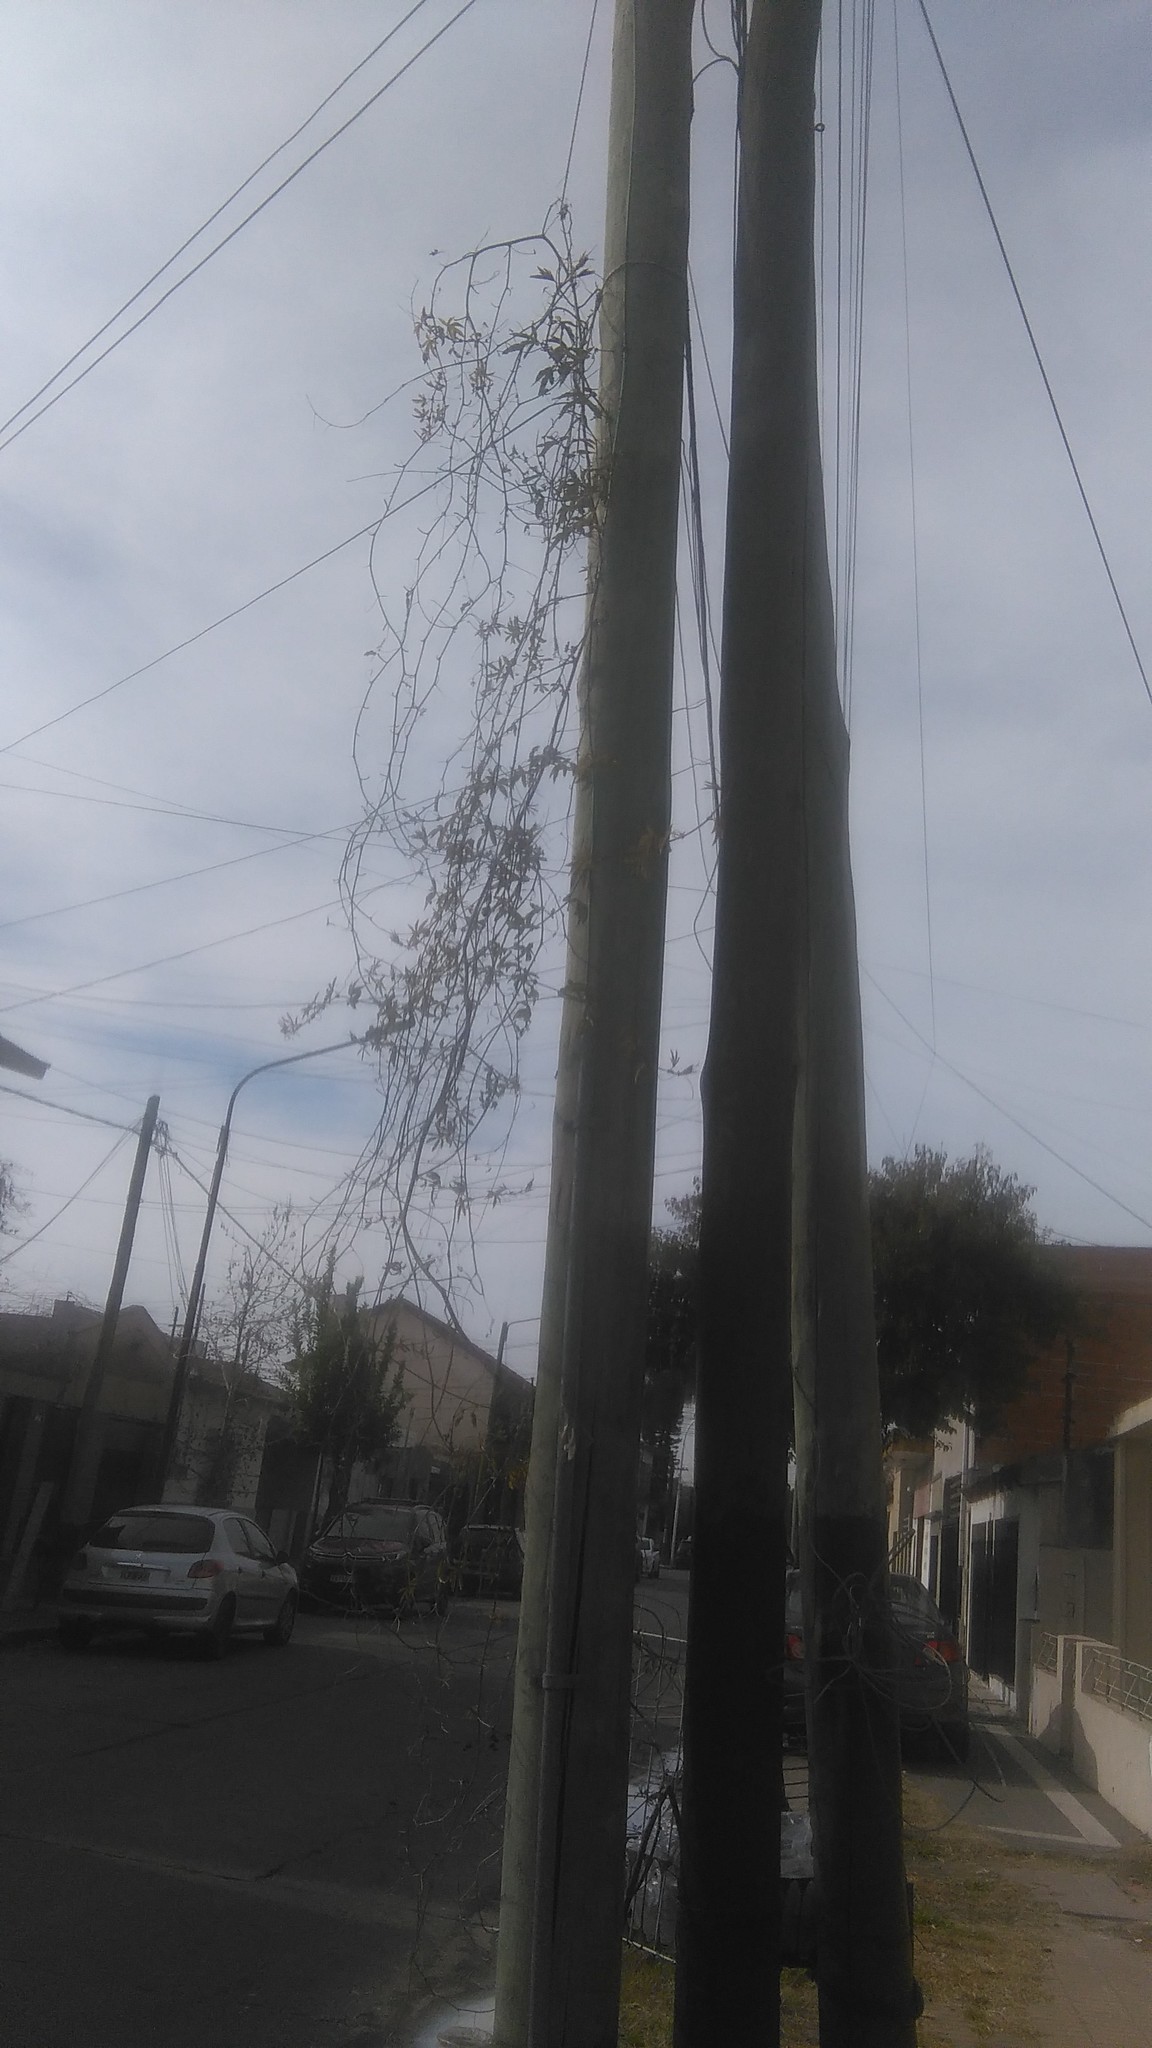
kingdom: Plantae
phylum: Tracheophyta
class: Magnoliopsida
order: Malpighiales
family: Passifloraceae
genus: Passiflora
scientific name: Passiflora caerulea
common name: Blue passionflower
